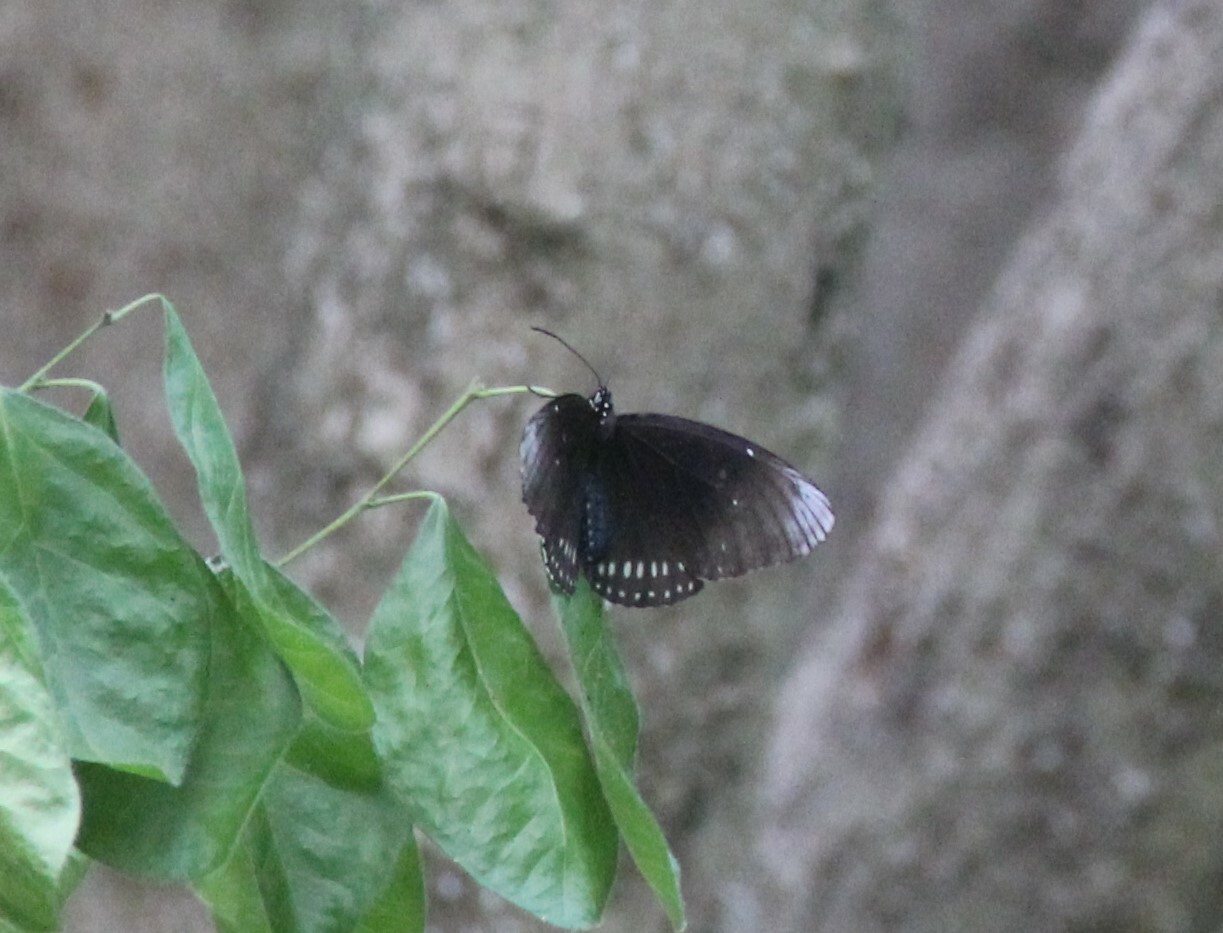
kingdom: Animalia
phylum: Arthropoda
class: Insecta
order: Lepidoptera
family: Nymphalidae
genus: Euploea
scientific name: Euploea core
